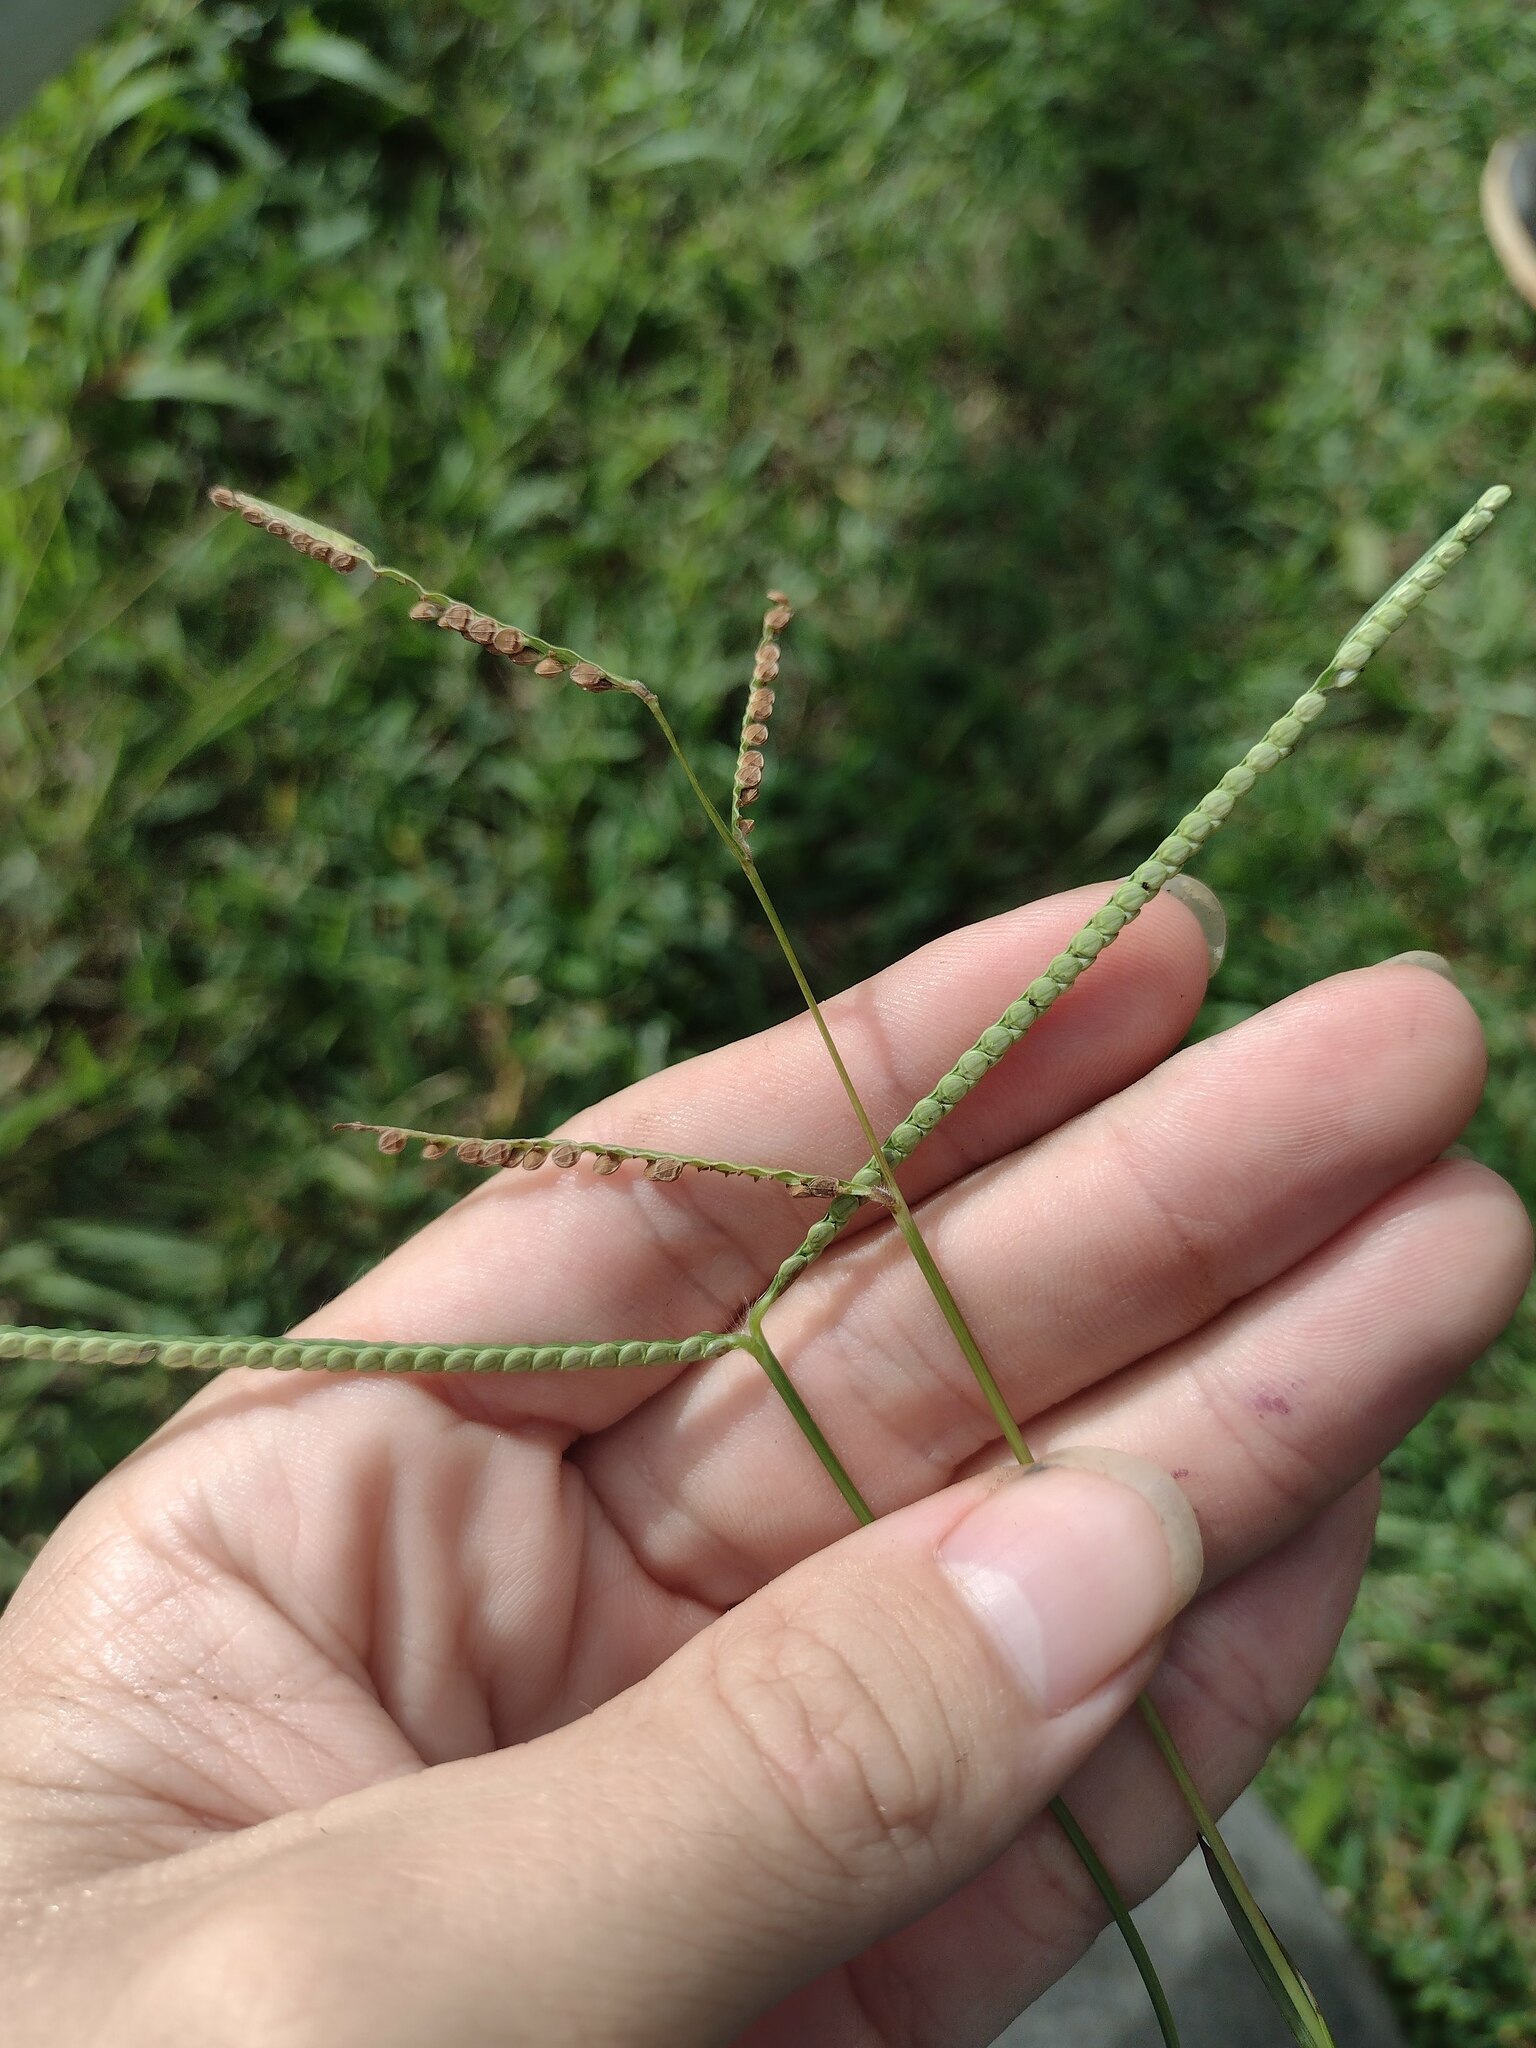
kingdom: Plantae
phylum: Tracheophyta
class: Liliopsida
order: Poales
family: Poaceae
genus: Paspalum
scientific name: Paspalum scrobiculatum
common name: Kodo millet
